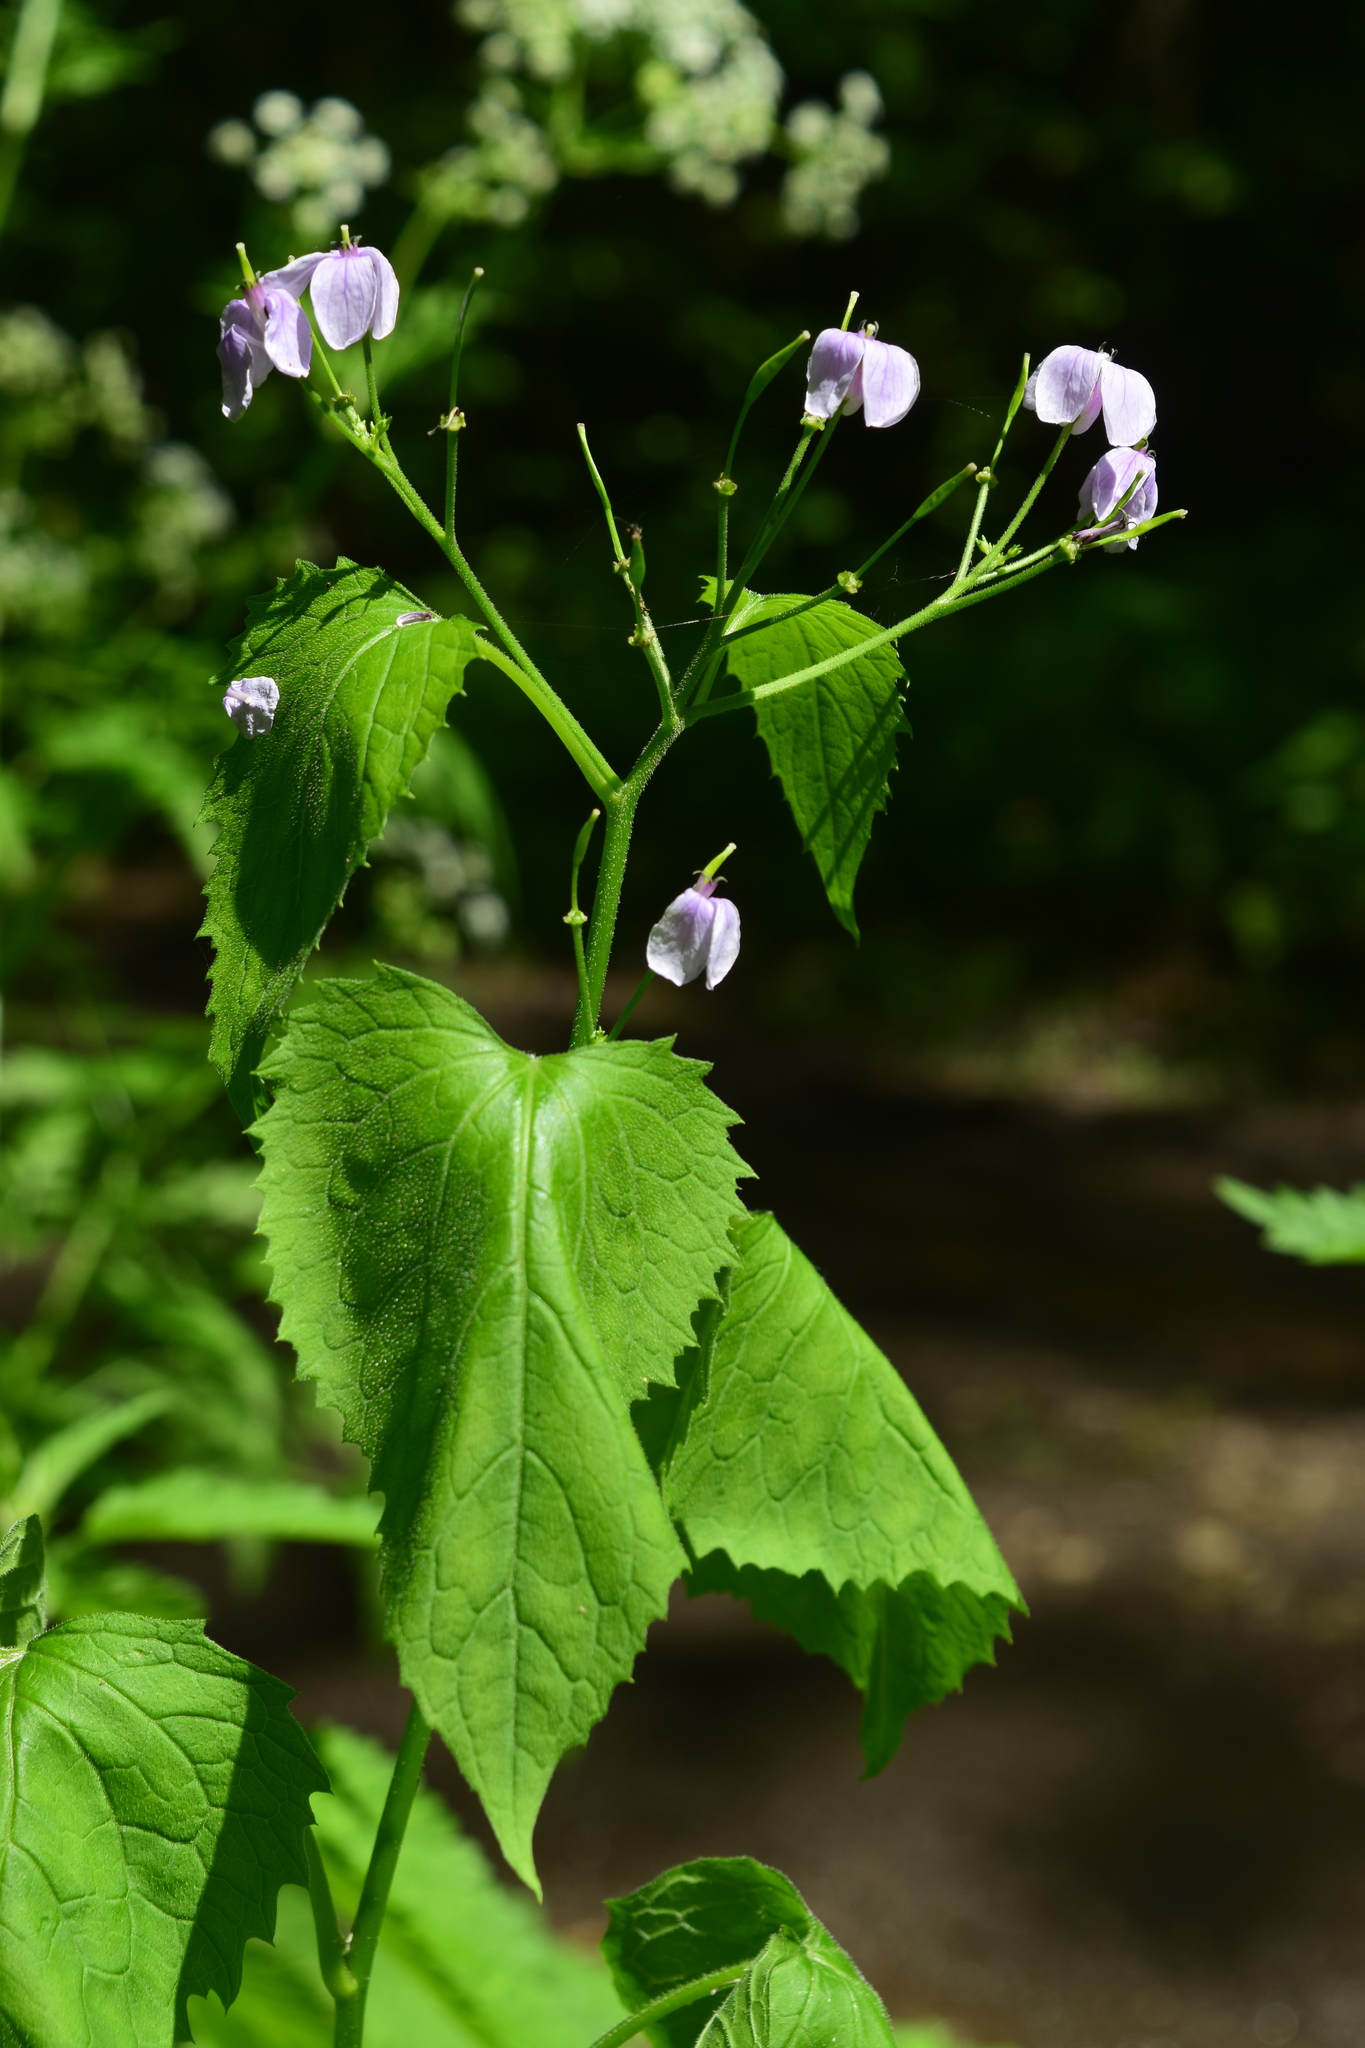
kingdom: Plantae
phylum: Tracheophyta
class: Magnoliopsida
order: Brassicales
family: Brassicaceae
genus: Lunaria
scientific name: Lunaria rediviva
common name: Perennial honesty
